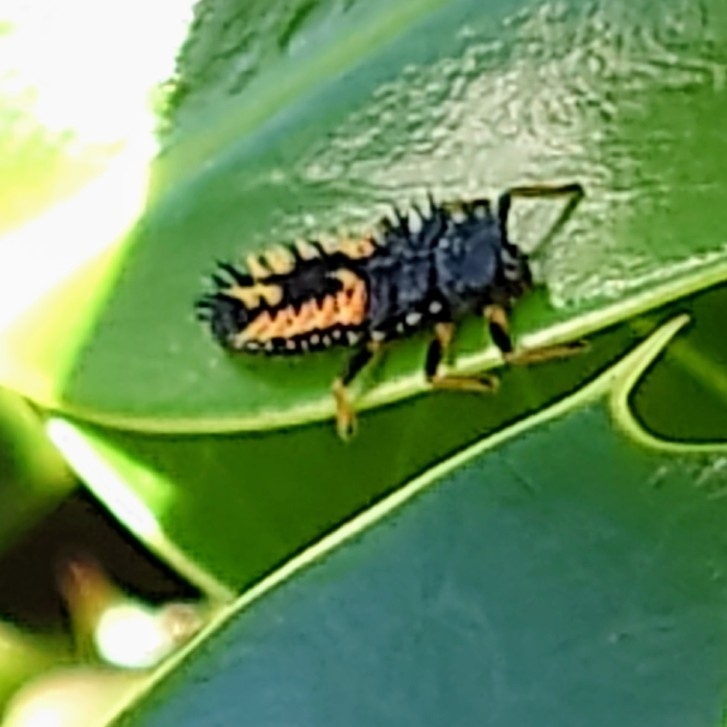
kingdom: Animalia
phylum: Arthropoda
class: Insecta
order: Coleoptera
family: Coccinellidae
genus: Harmonia
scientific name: Harmonia axyridis
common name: Harlequin ladybird
